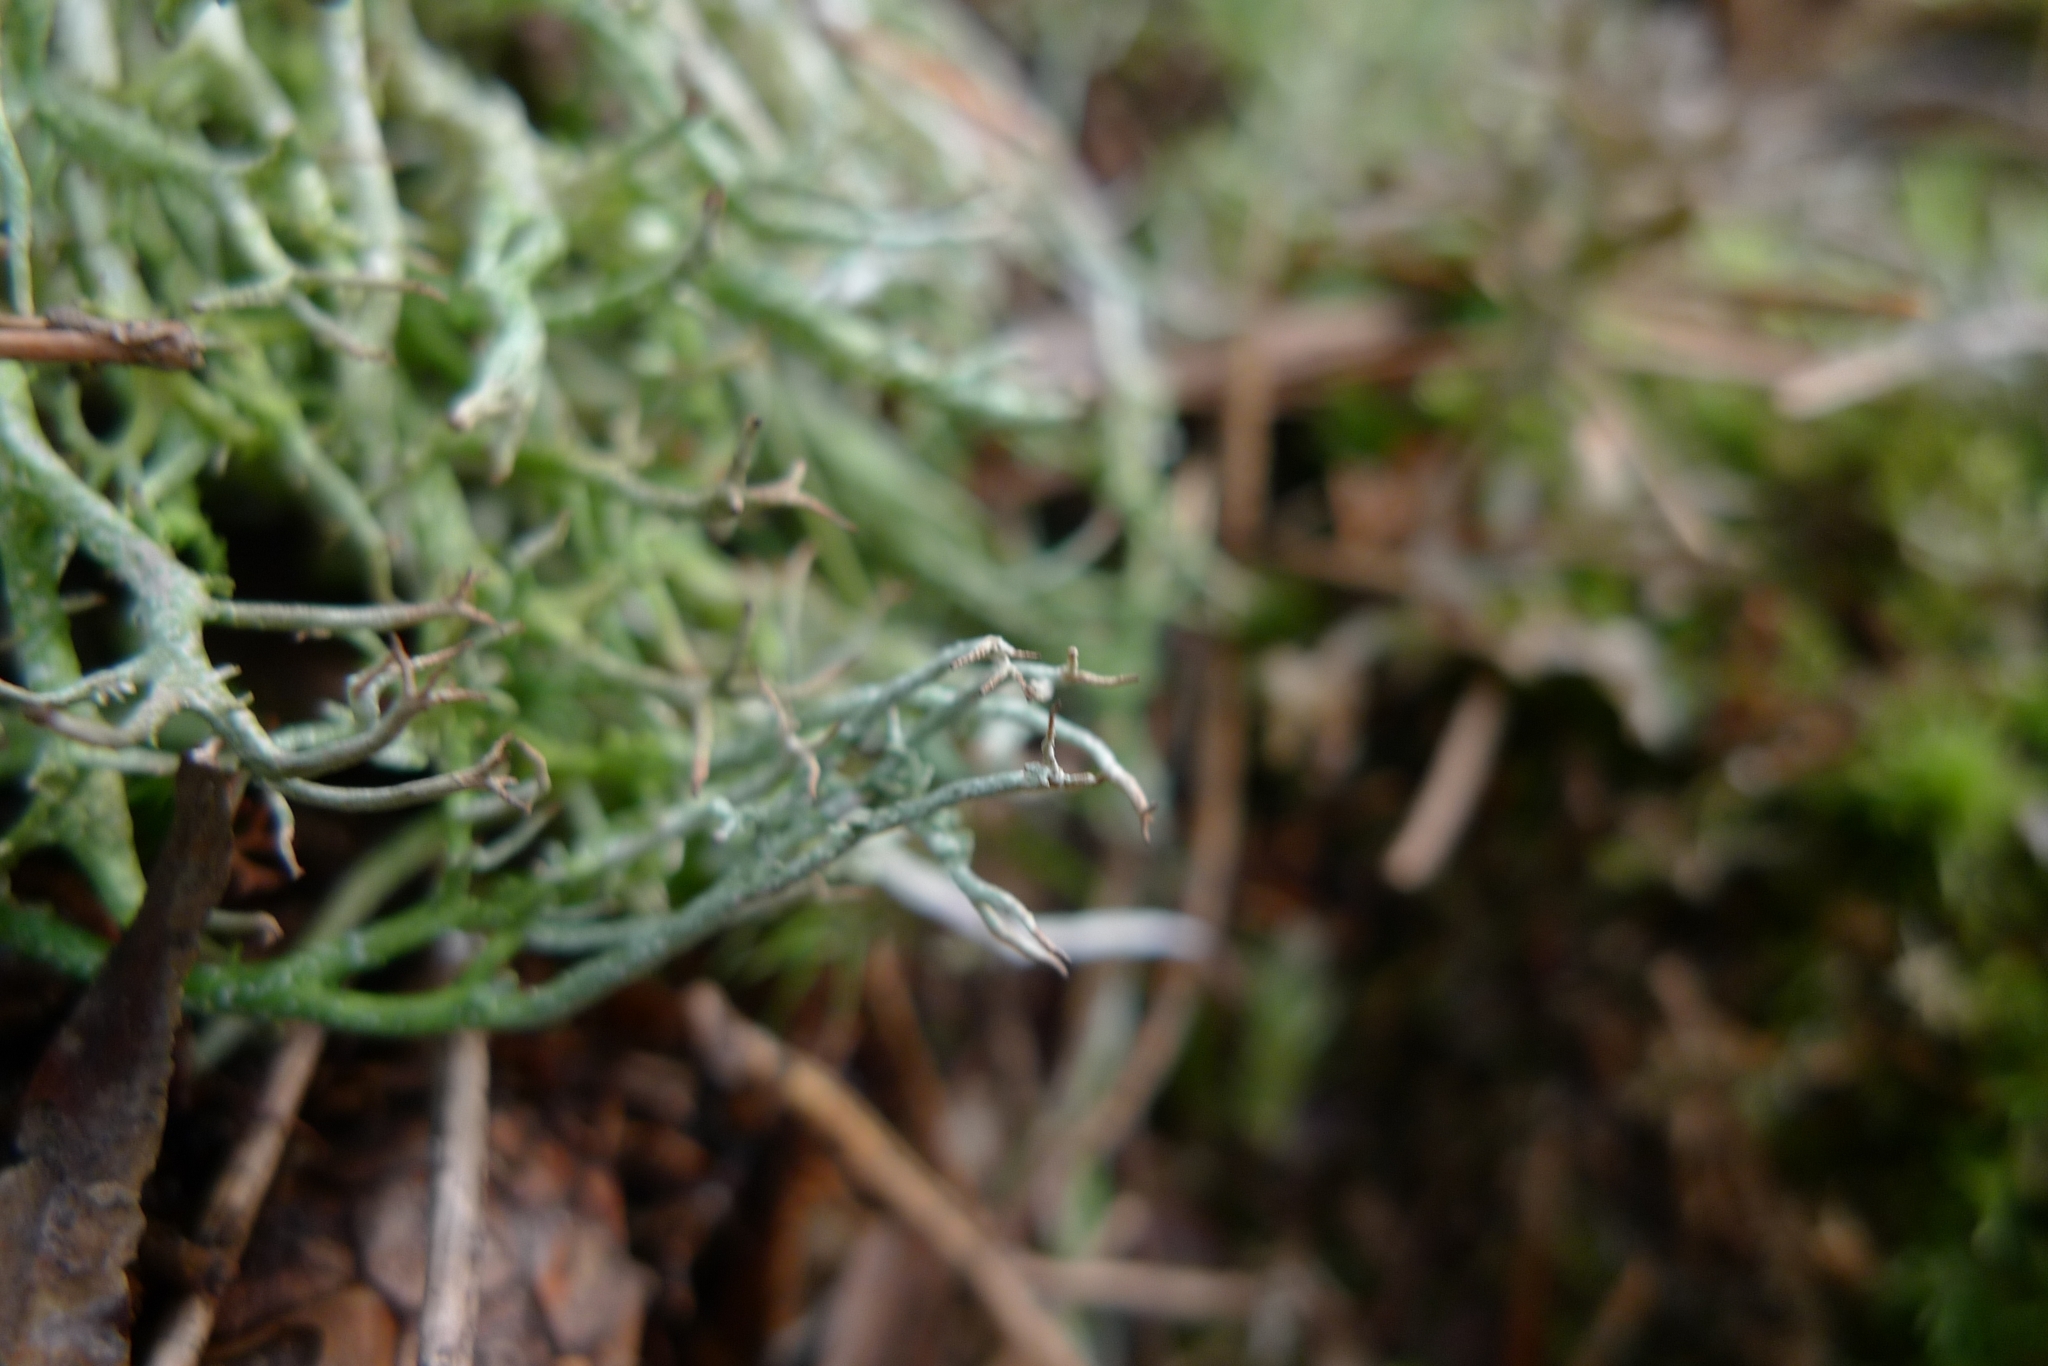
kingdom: Fungi
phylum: Ascomycota
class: Lecanoromycetes
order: Lecanorales
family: Cladoniaceae
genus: Cladonia
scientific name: Cladonia furcata
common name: Many-forked cladonia
